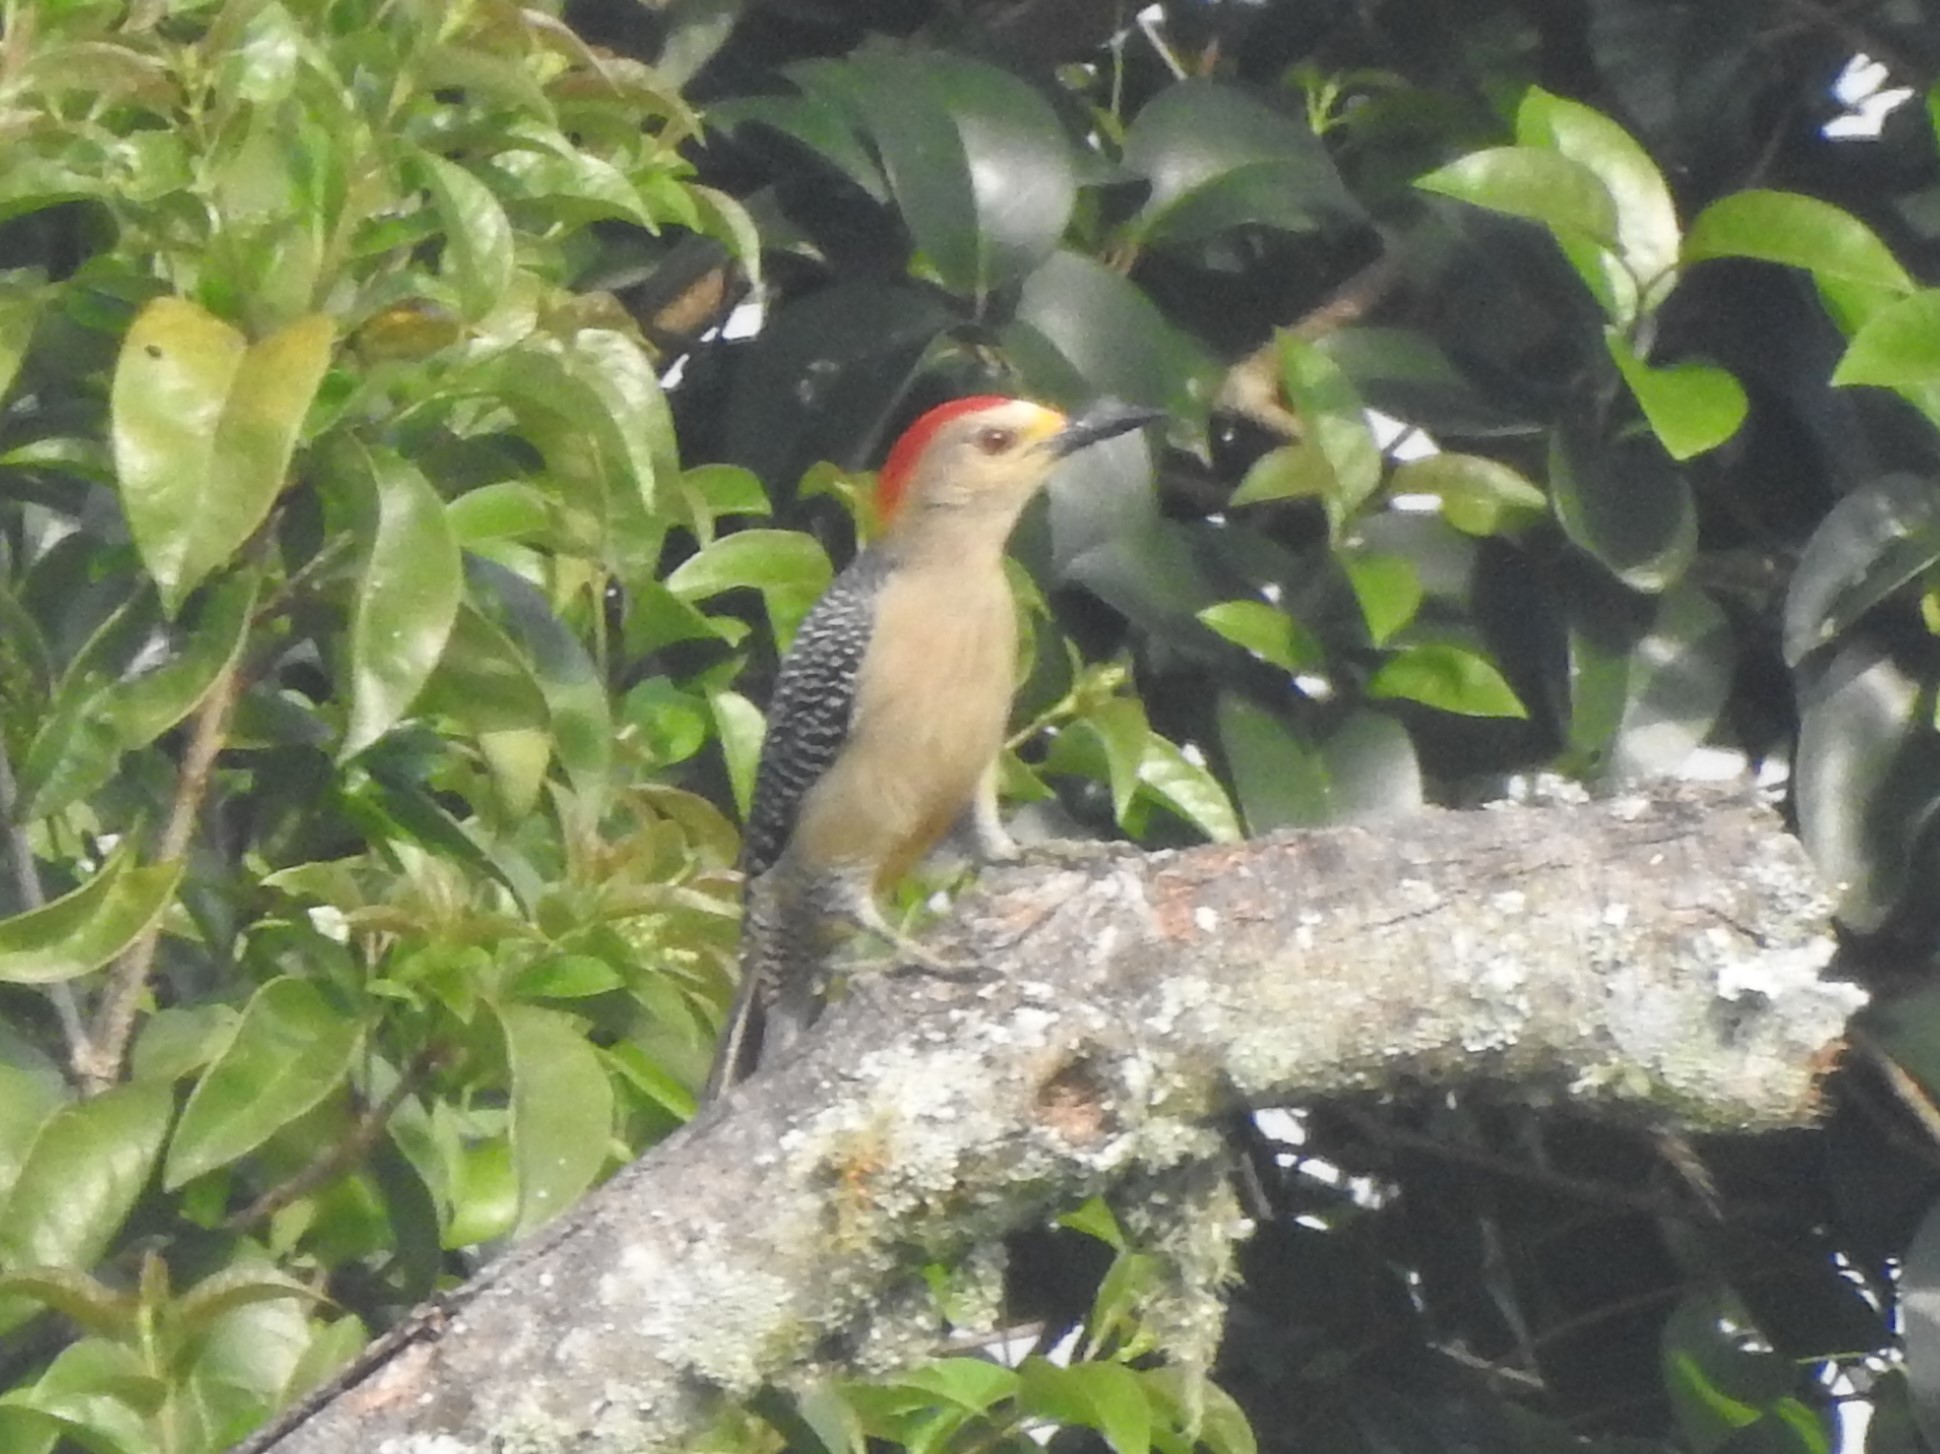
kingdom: Animalia
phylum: Chordata
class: Aves
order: Piciformes
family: Picidae
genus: Melanerpes
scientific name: Melanerpes aurifrons
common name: Golden-fronted woodpecker
